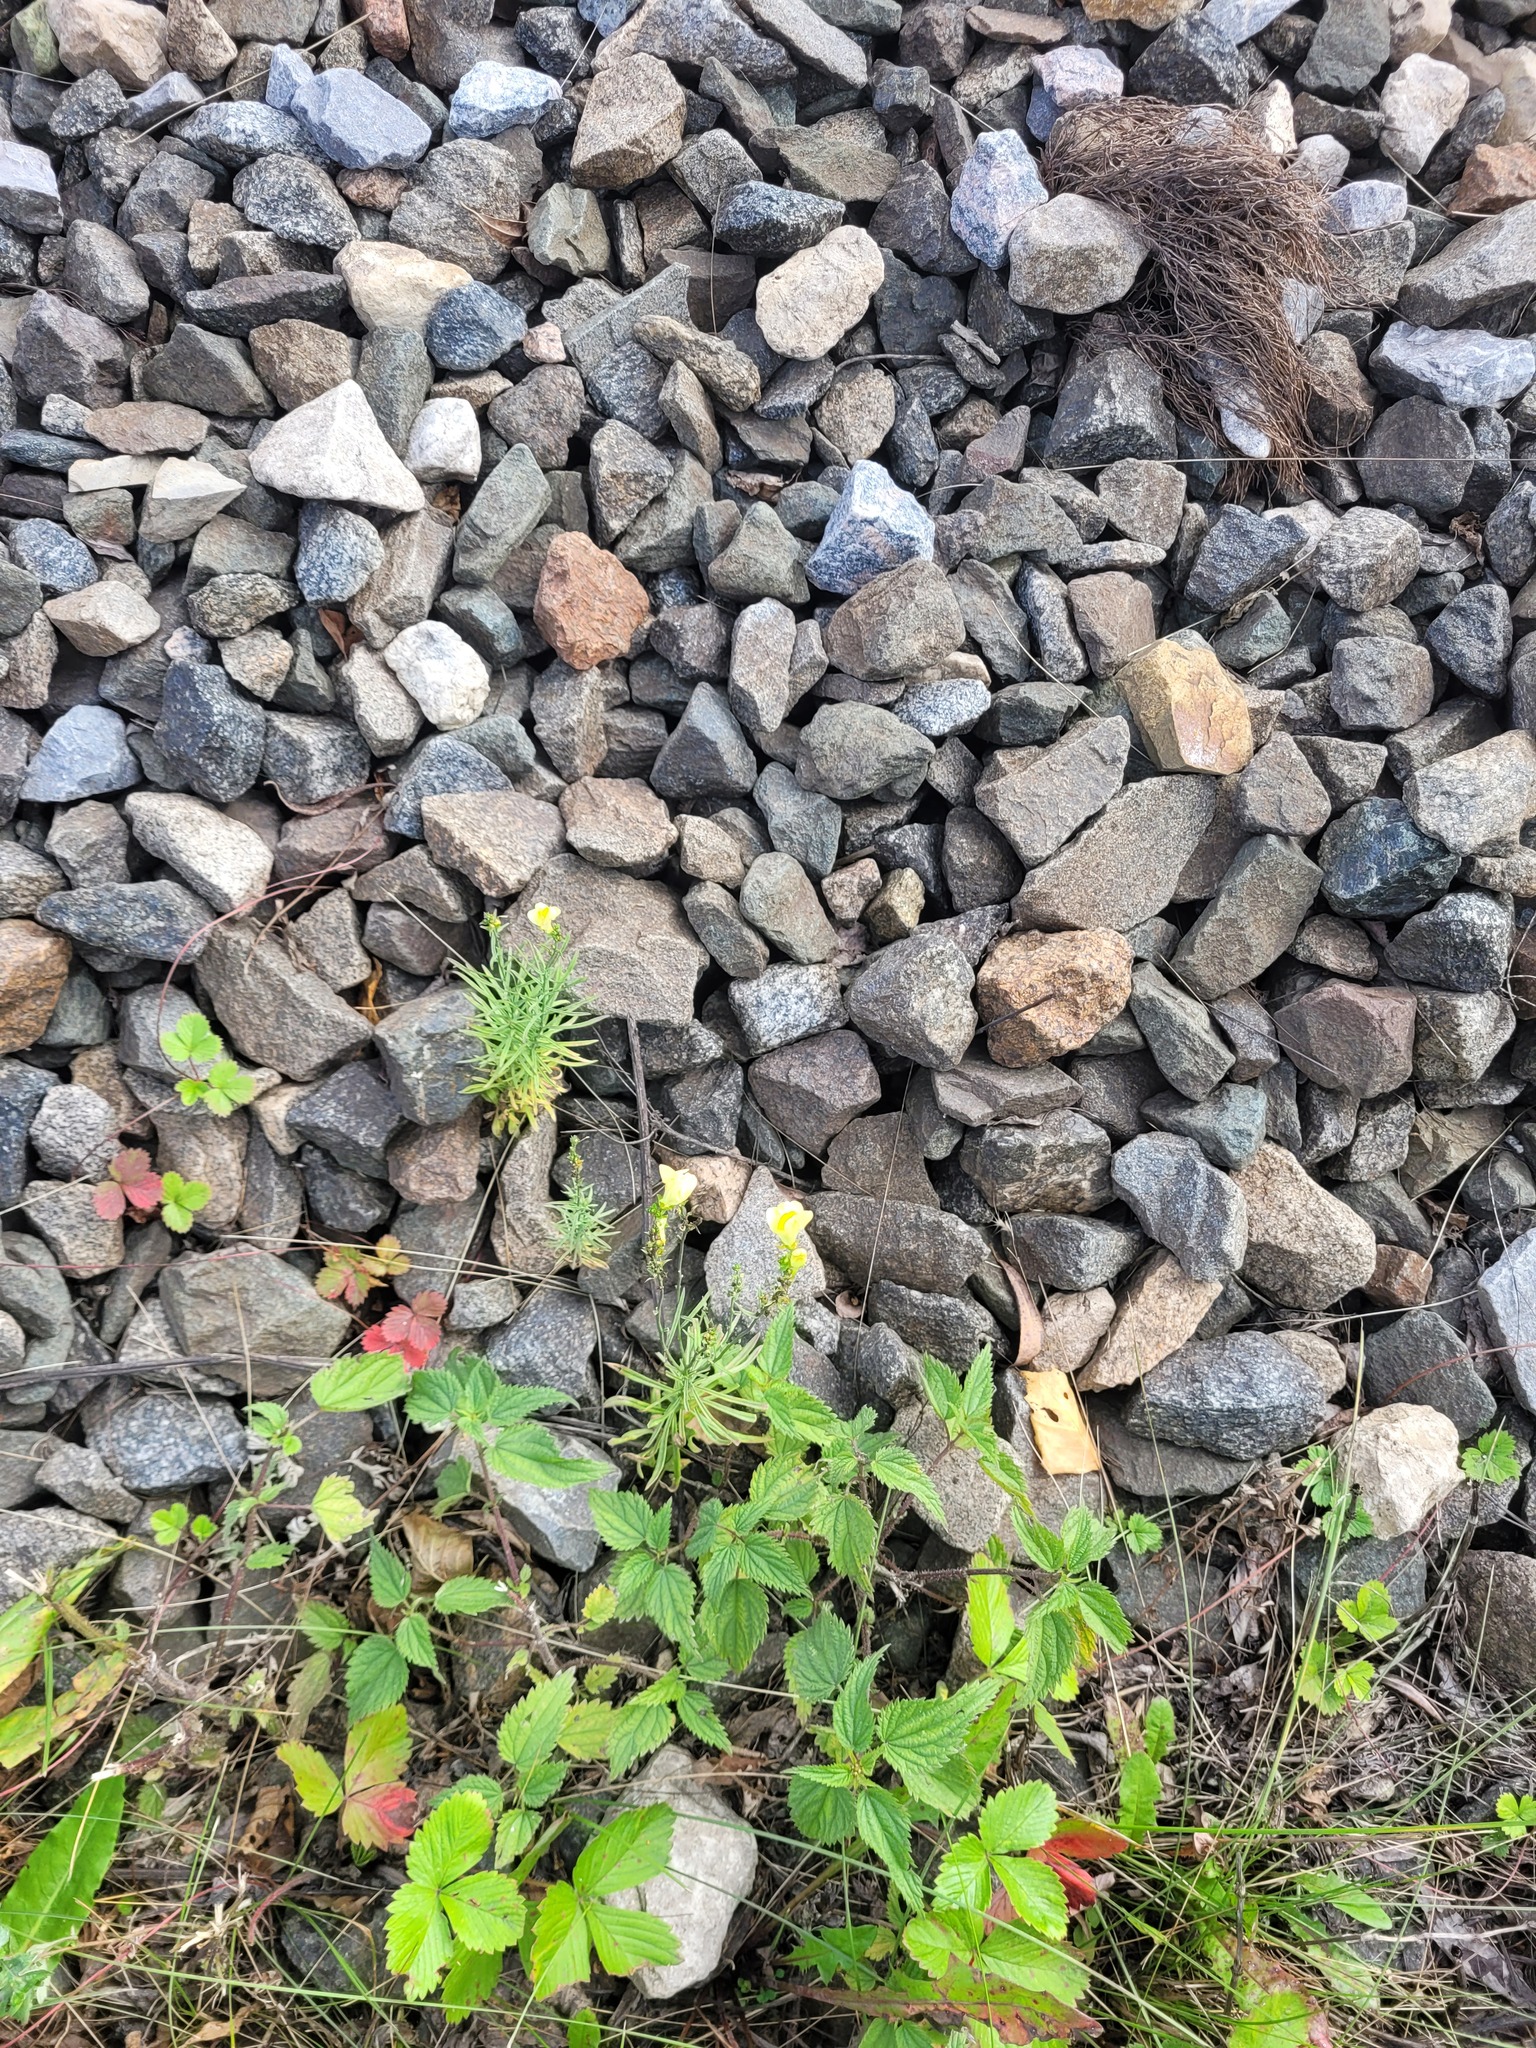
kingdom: Plantae
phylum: Tracheophyta
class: Magnoliopsida
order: Lamiales
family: Plantaginaceae
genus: Linaria
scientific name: Linaria vulgaris
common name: Butter and eggs
